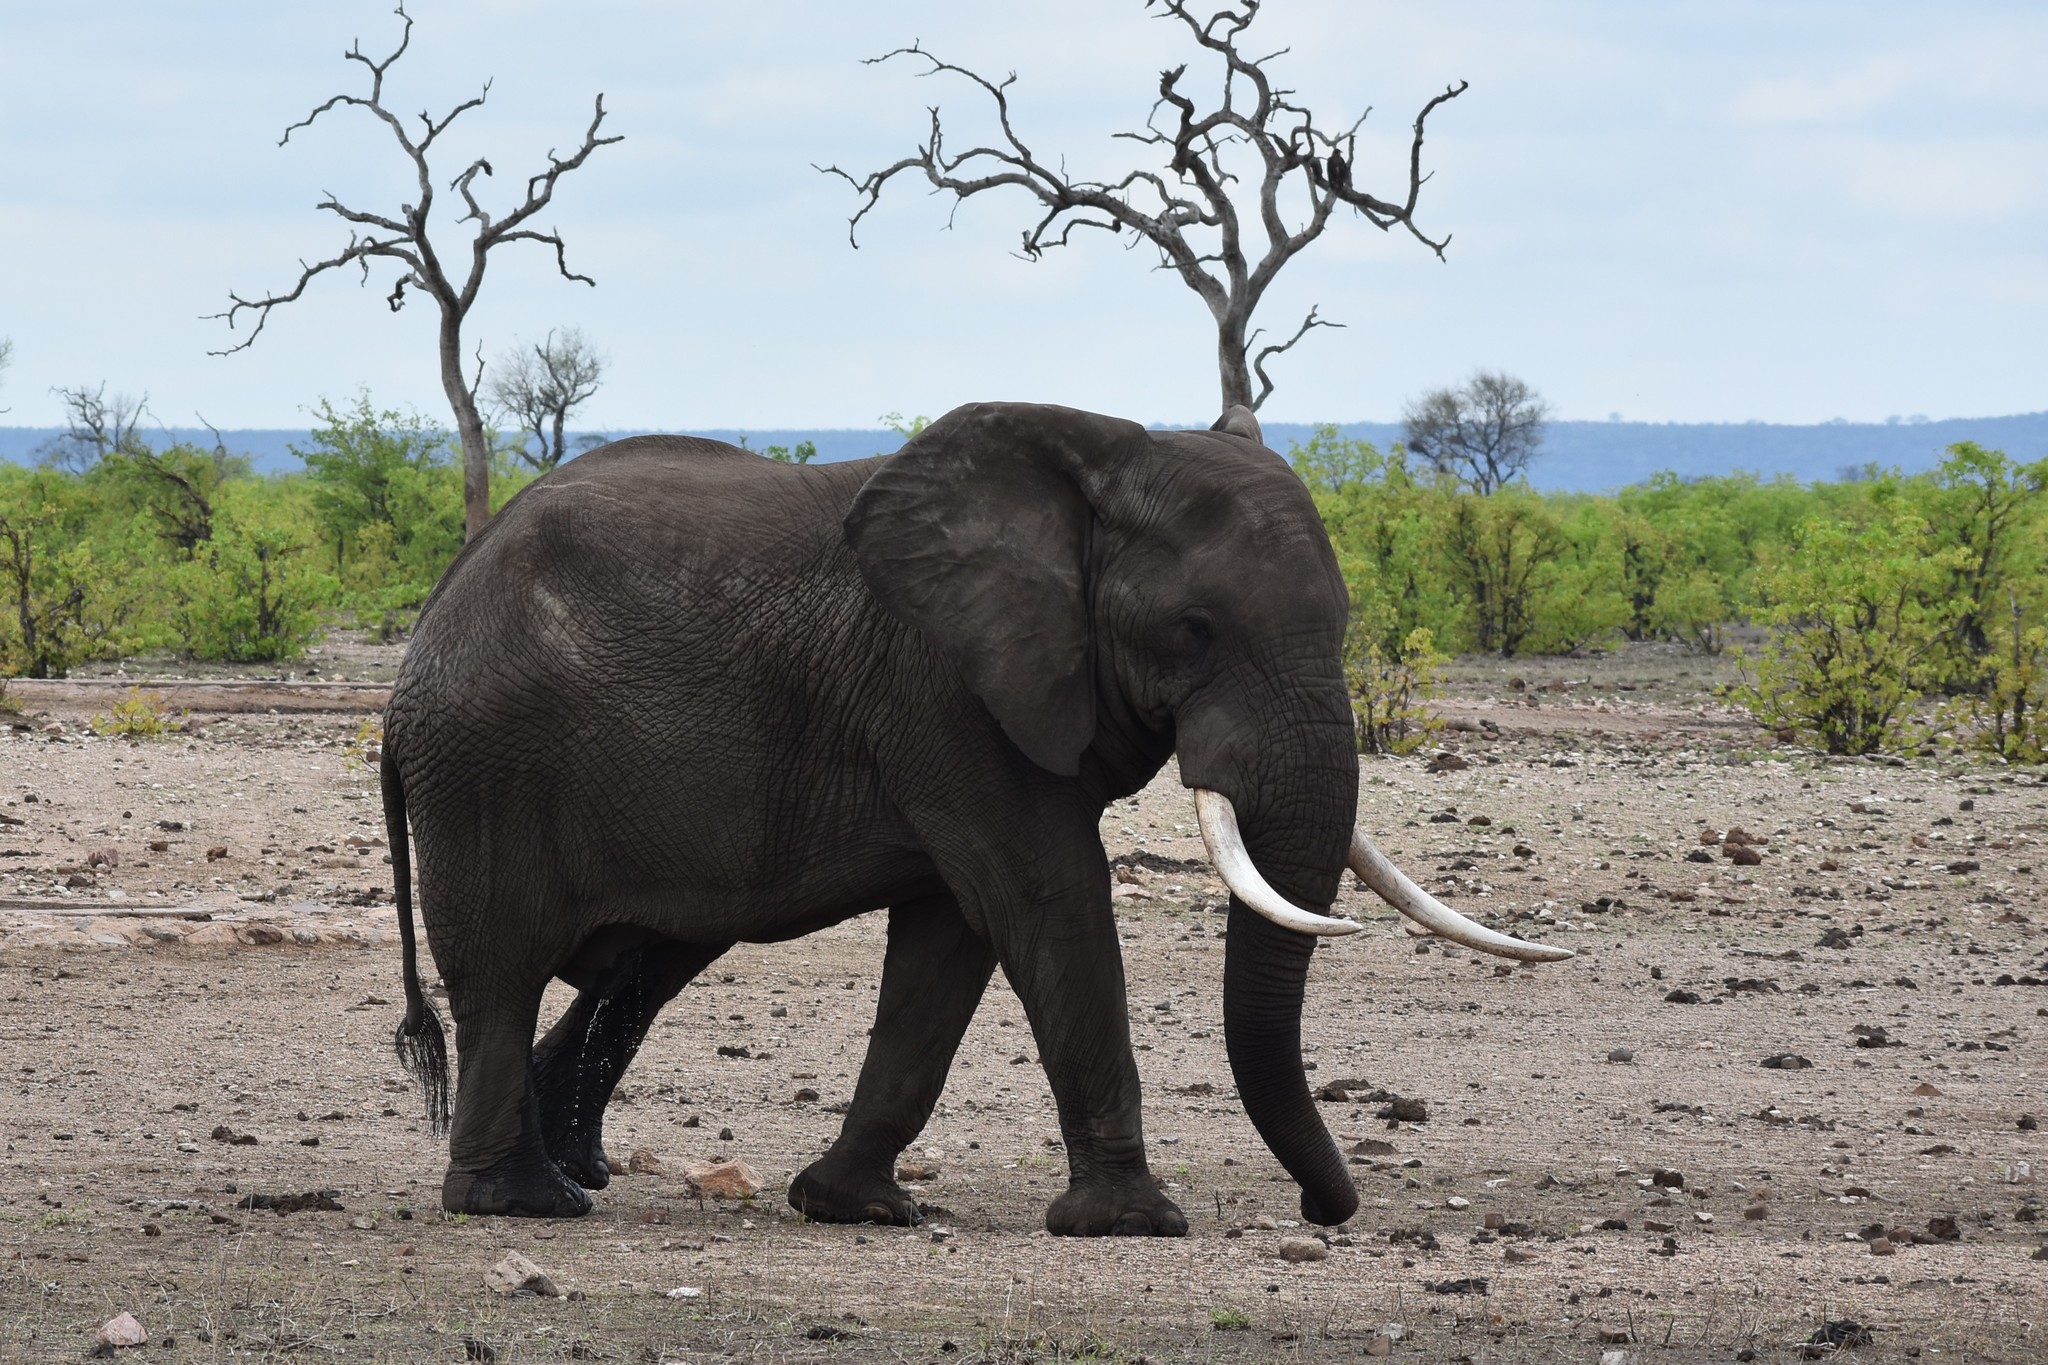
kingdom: Animalia
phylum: Chordata
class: Mammalia
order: Proboscidea
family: Elephantidae
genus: Loxodonta
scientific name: Loxodonta africana
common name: African elephant
